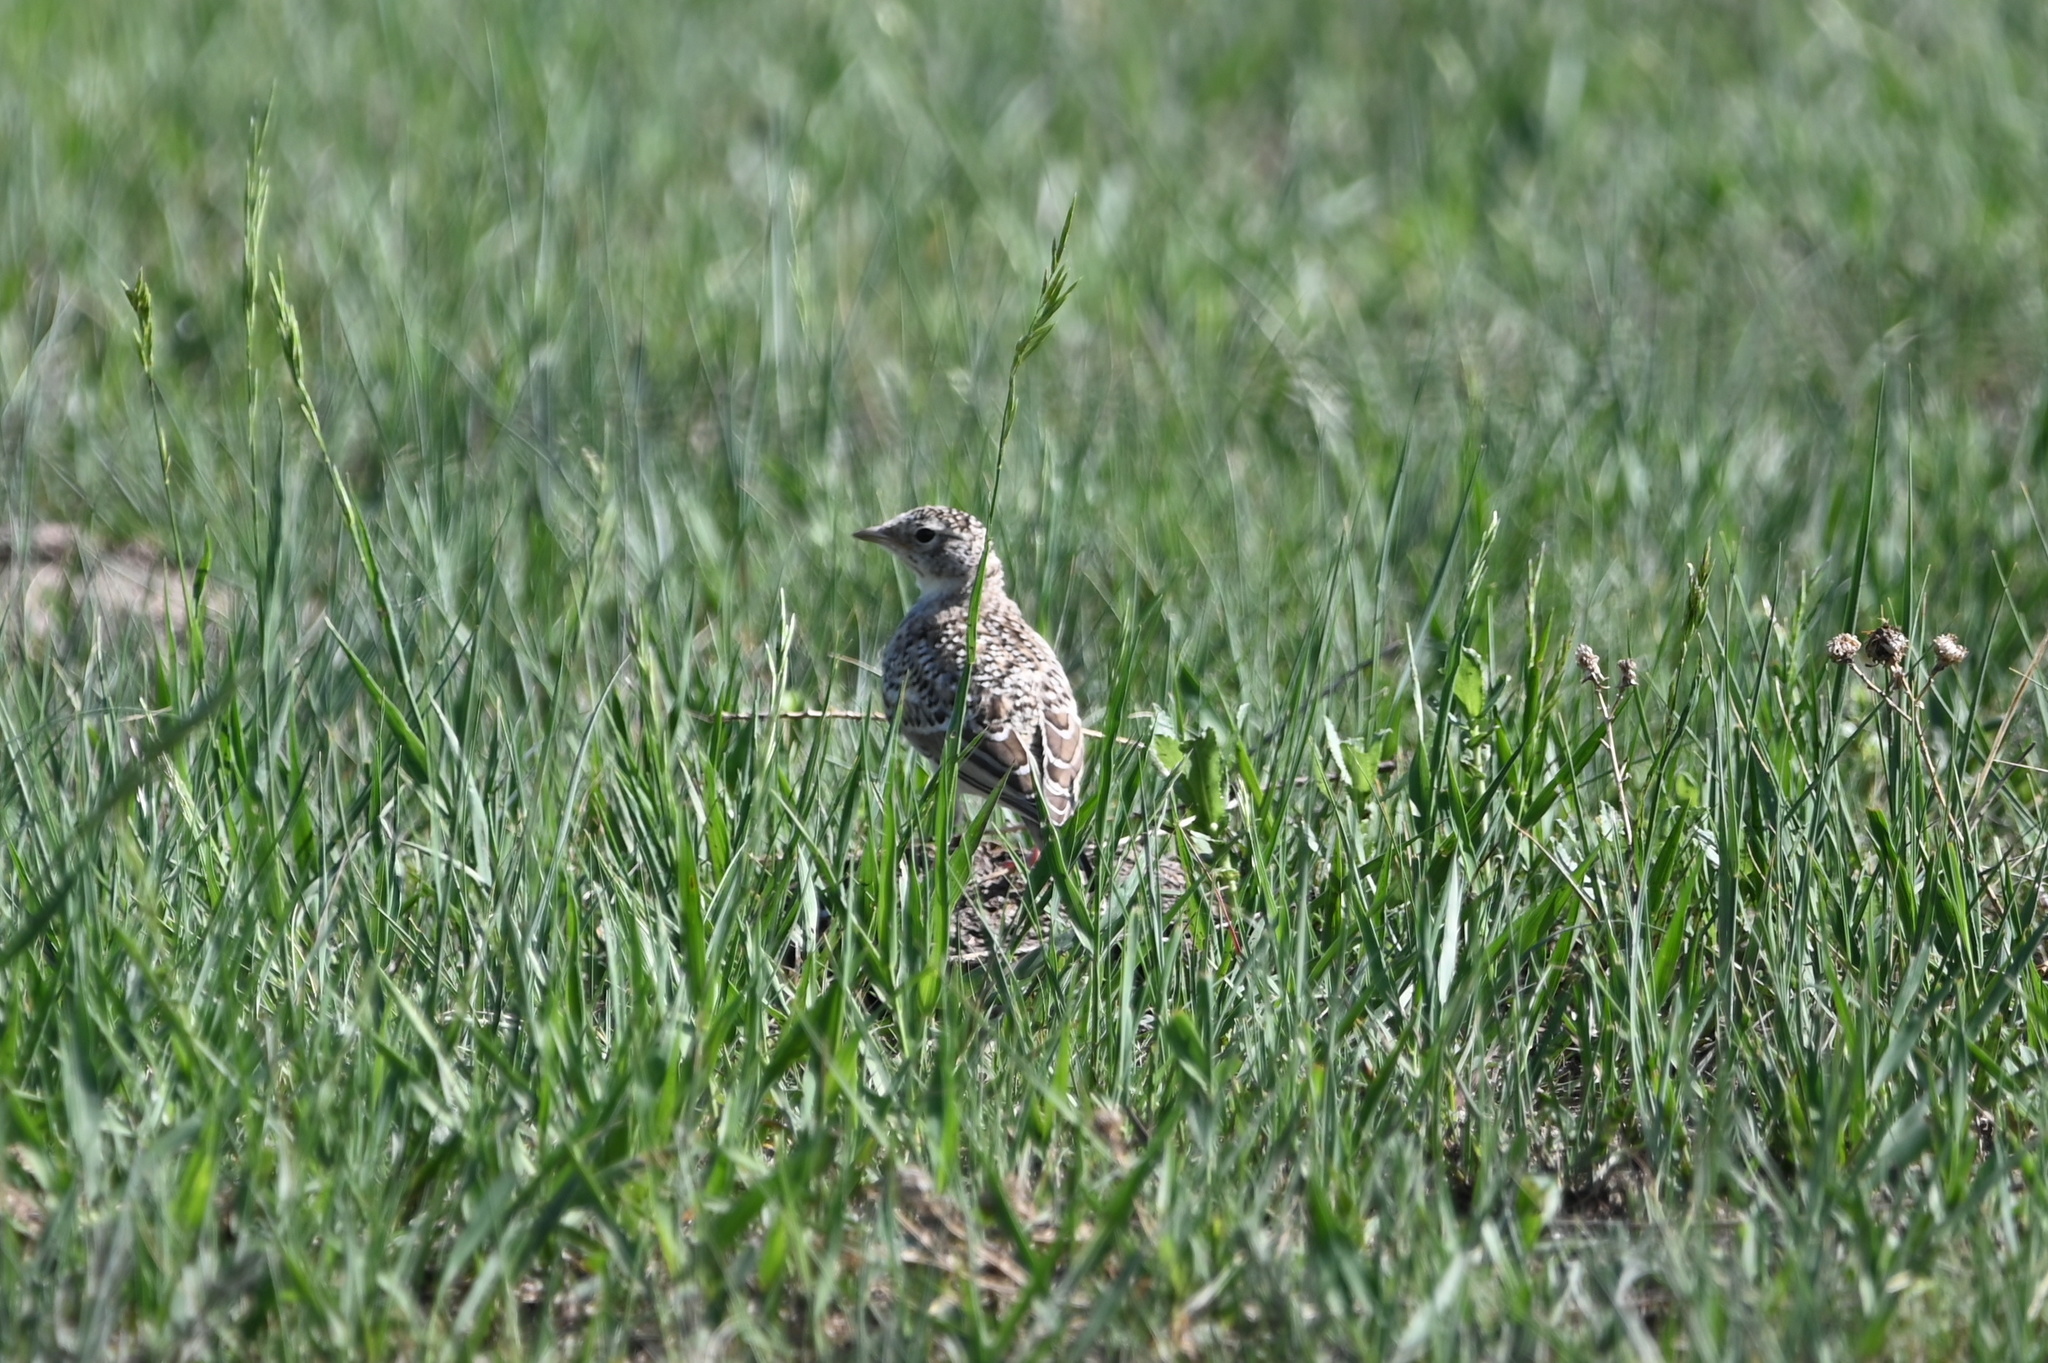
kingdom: Animalia
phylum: Chordata
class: Aves
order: Passeriformes
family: Alaudidae
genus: Eremophila
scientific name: Eremophila alpestris
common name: Horned lark
